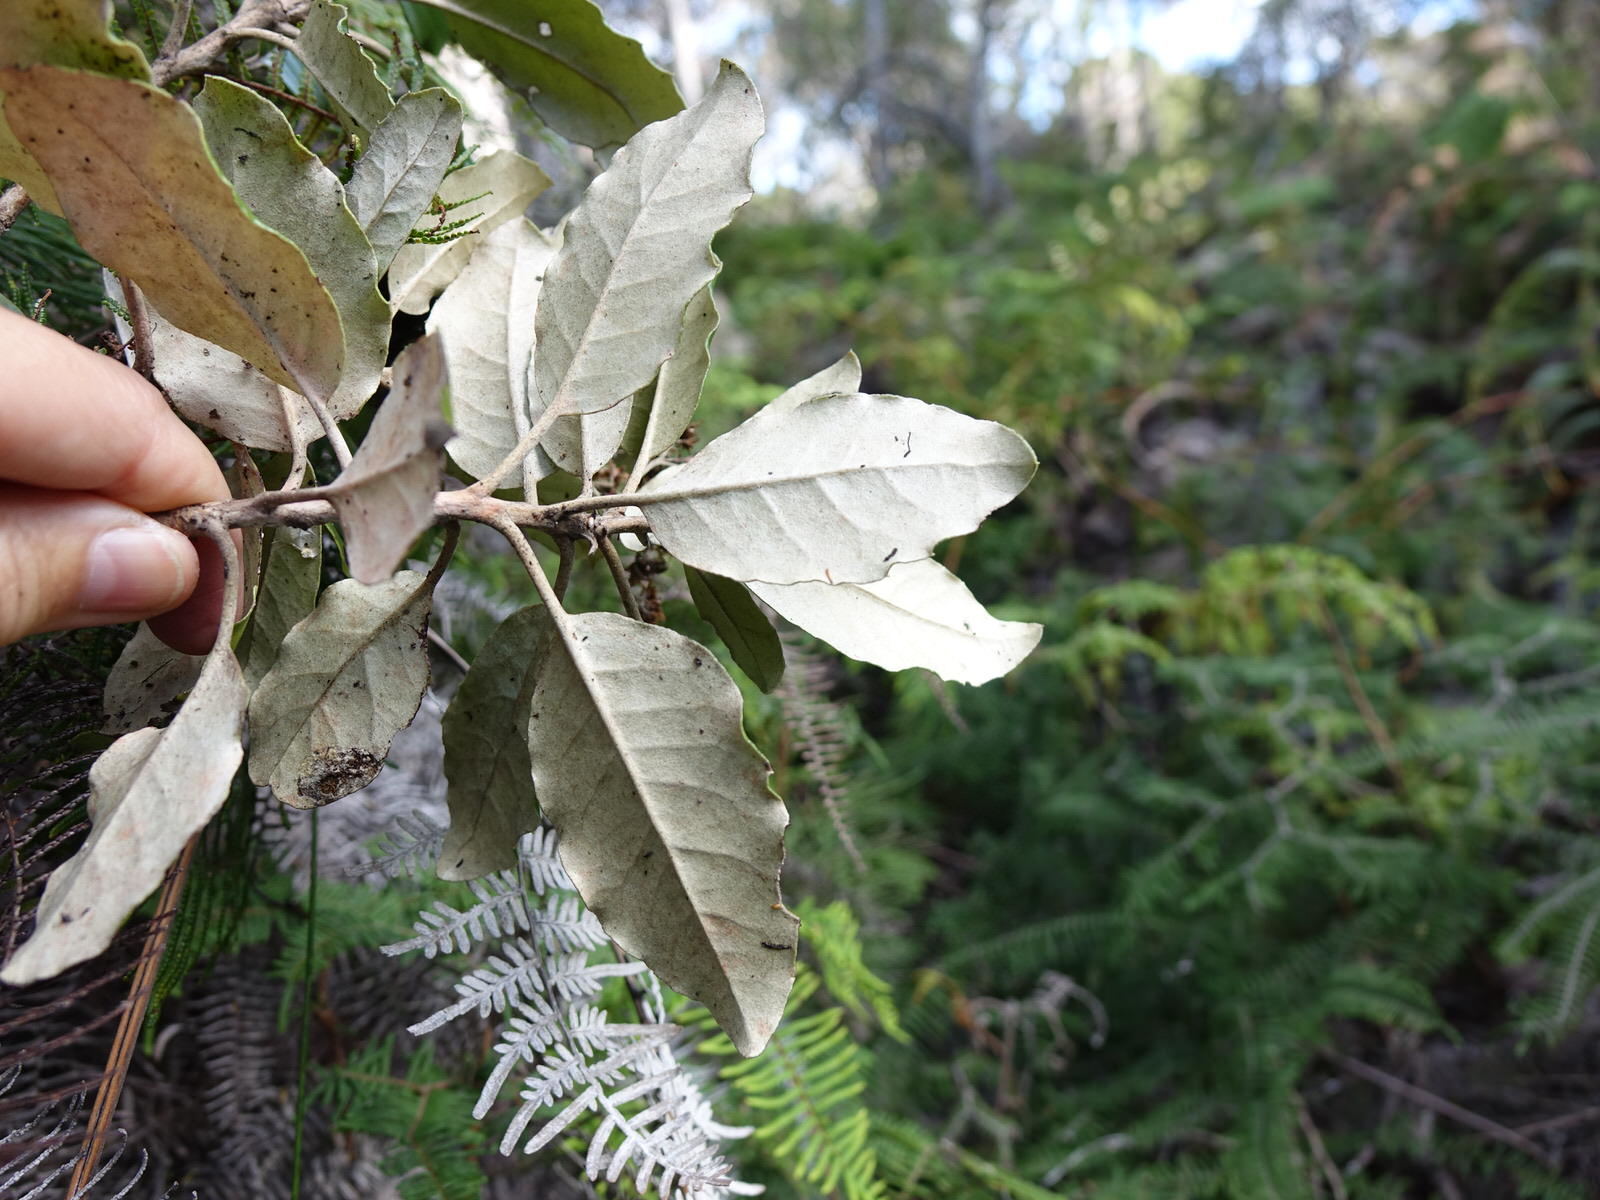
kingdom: Plantae
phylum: Tracheophyta
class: Magnoliopsida
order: Asterales
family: Asteraceae
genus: Olearia
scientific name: Olearia furfuracea
